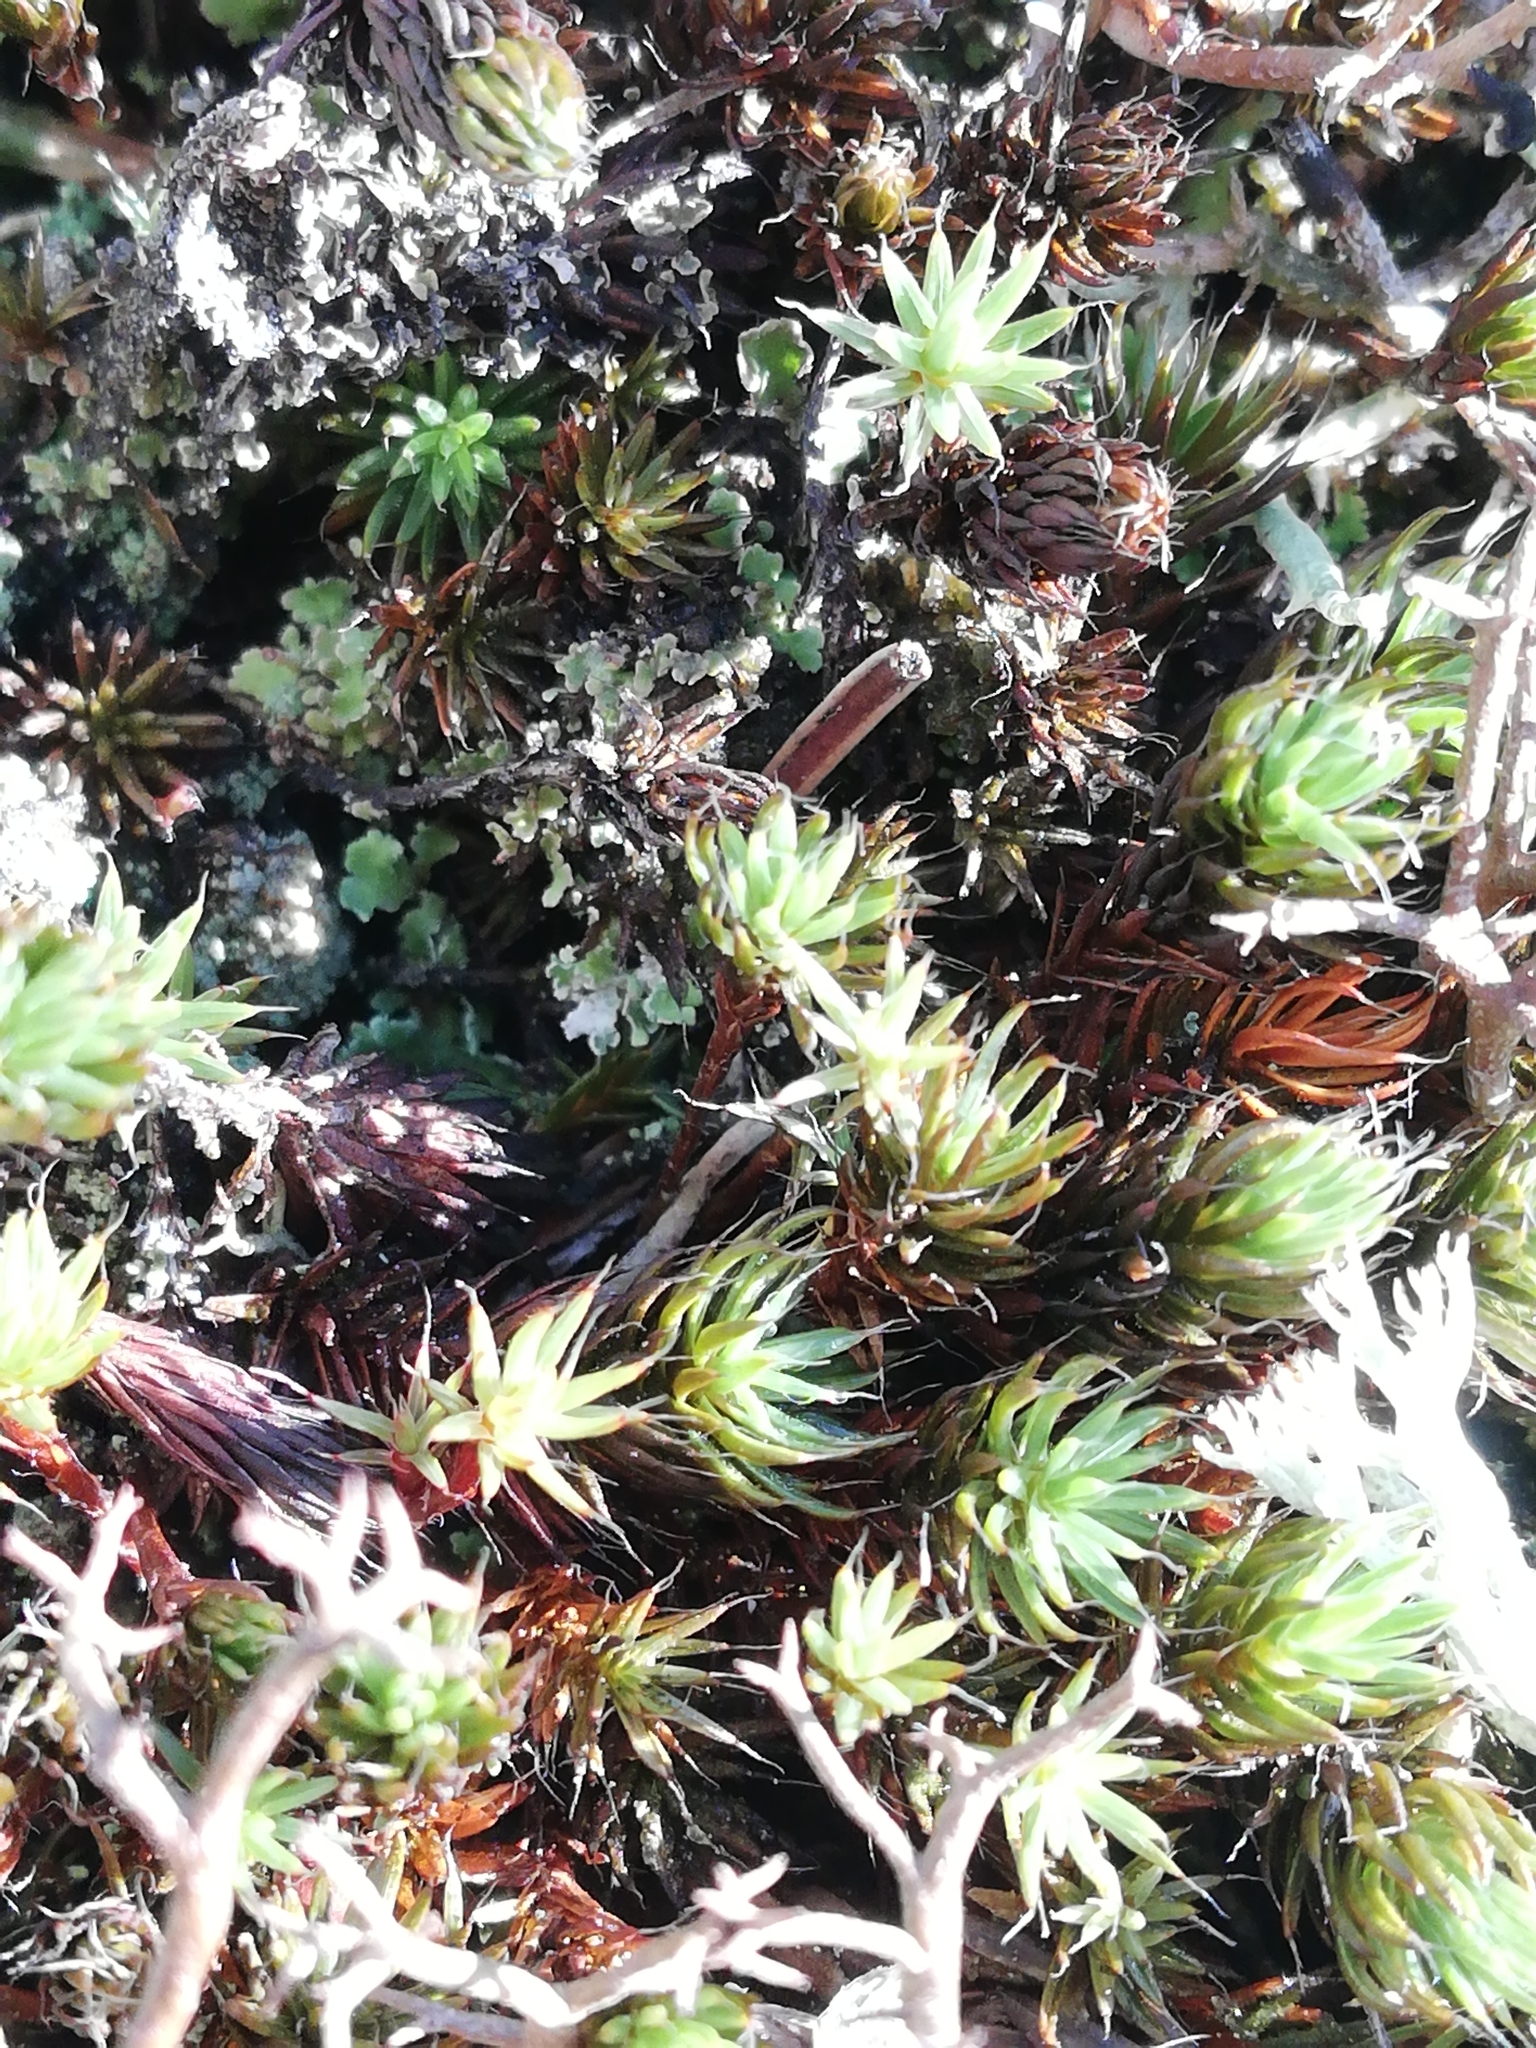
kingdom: Plantae
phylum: Bryophyta
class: Polytrichopsida
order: Polytrichales
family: Polytrichaceae
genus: Polytrichum
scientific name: Polytrichum piliferum
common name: Bristly haircap
